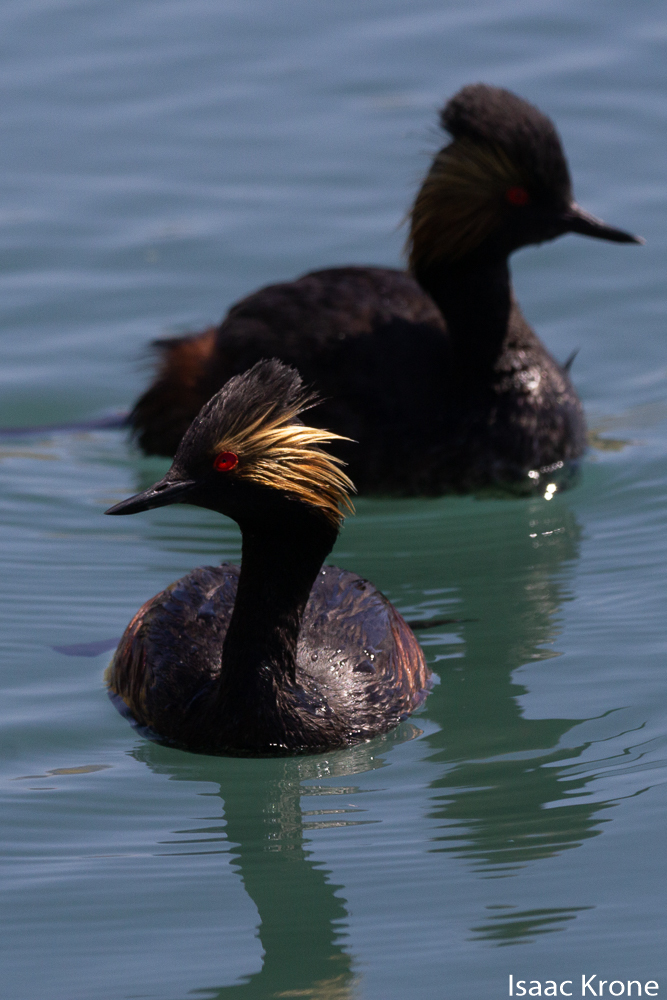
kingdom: Animalia
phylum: Chordata
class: Aves
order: Podicipediformes
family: Podicipedidae
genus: Podiceps
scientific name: Podiceps nigricollis
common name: Black-necked grebe
